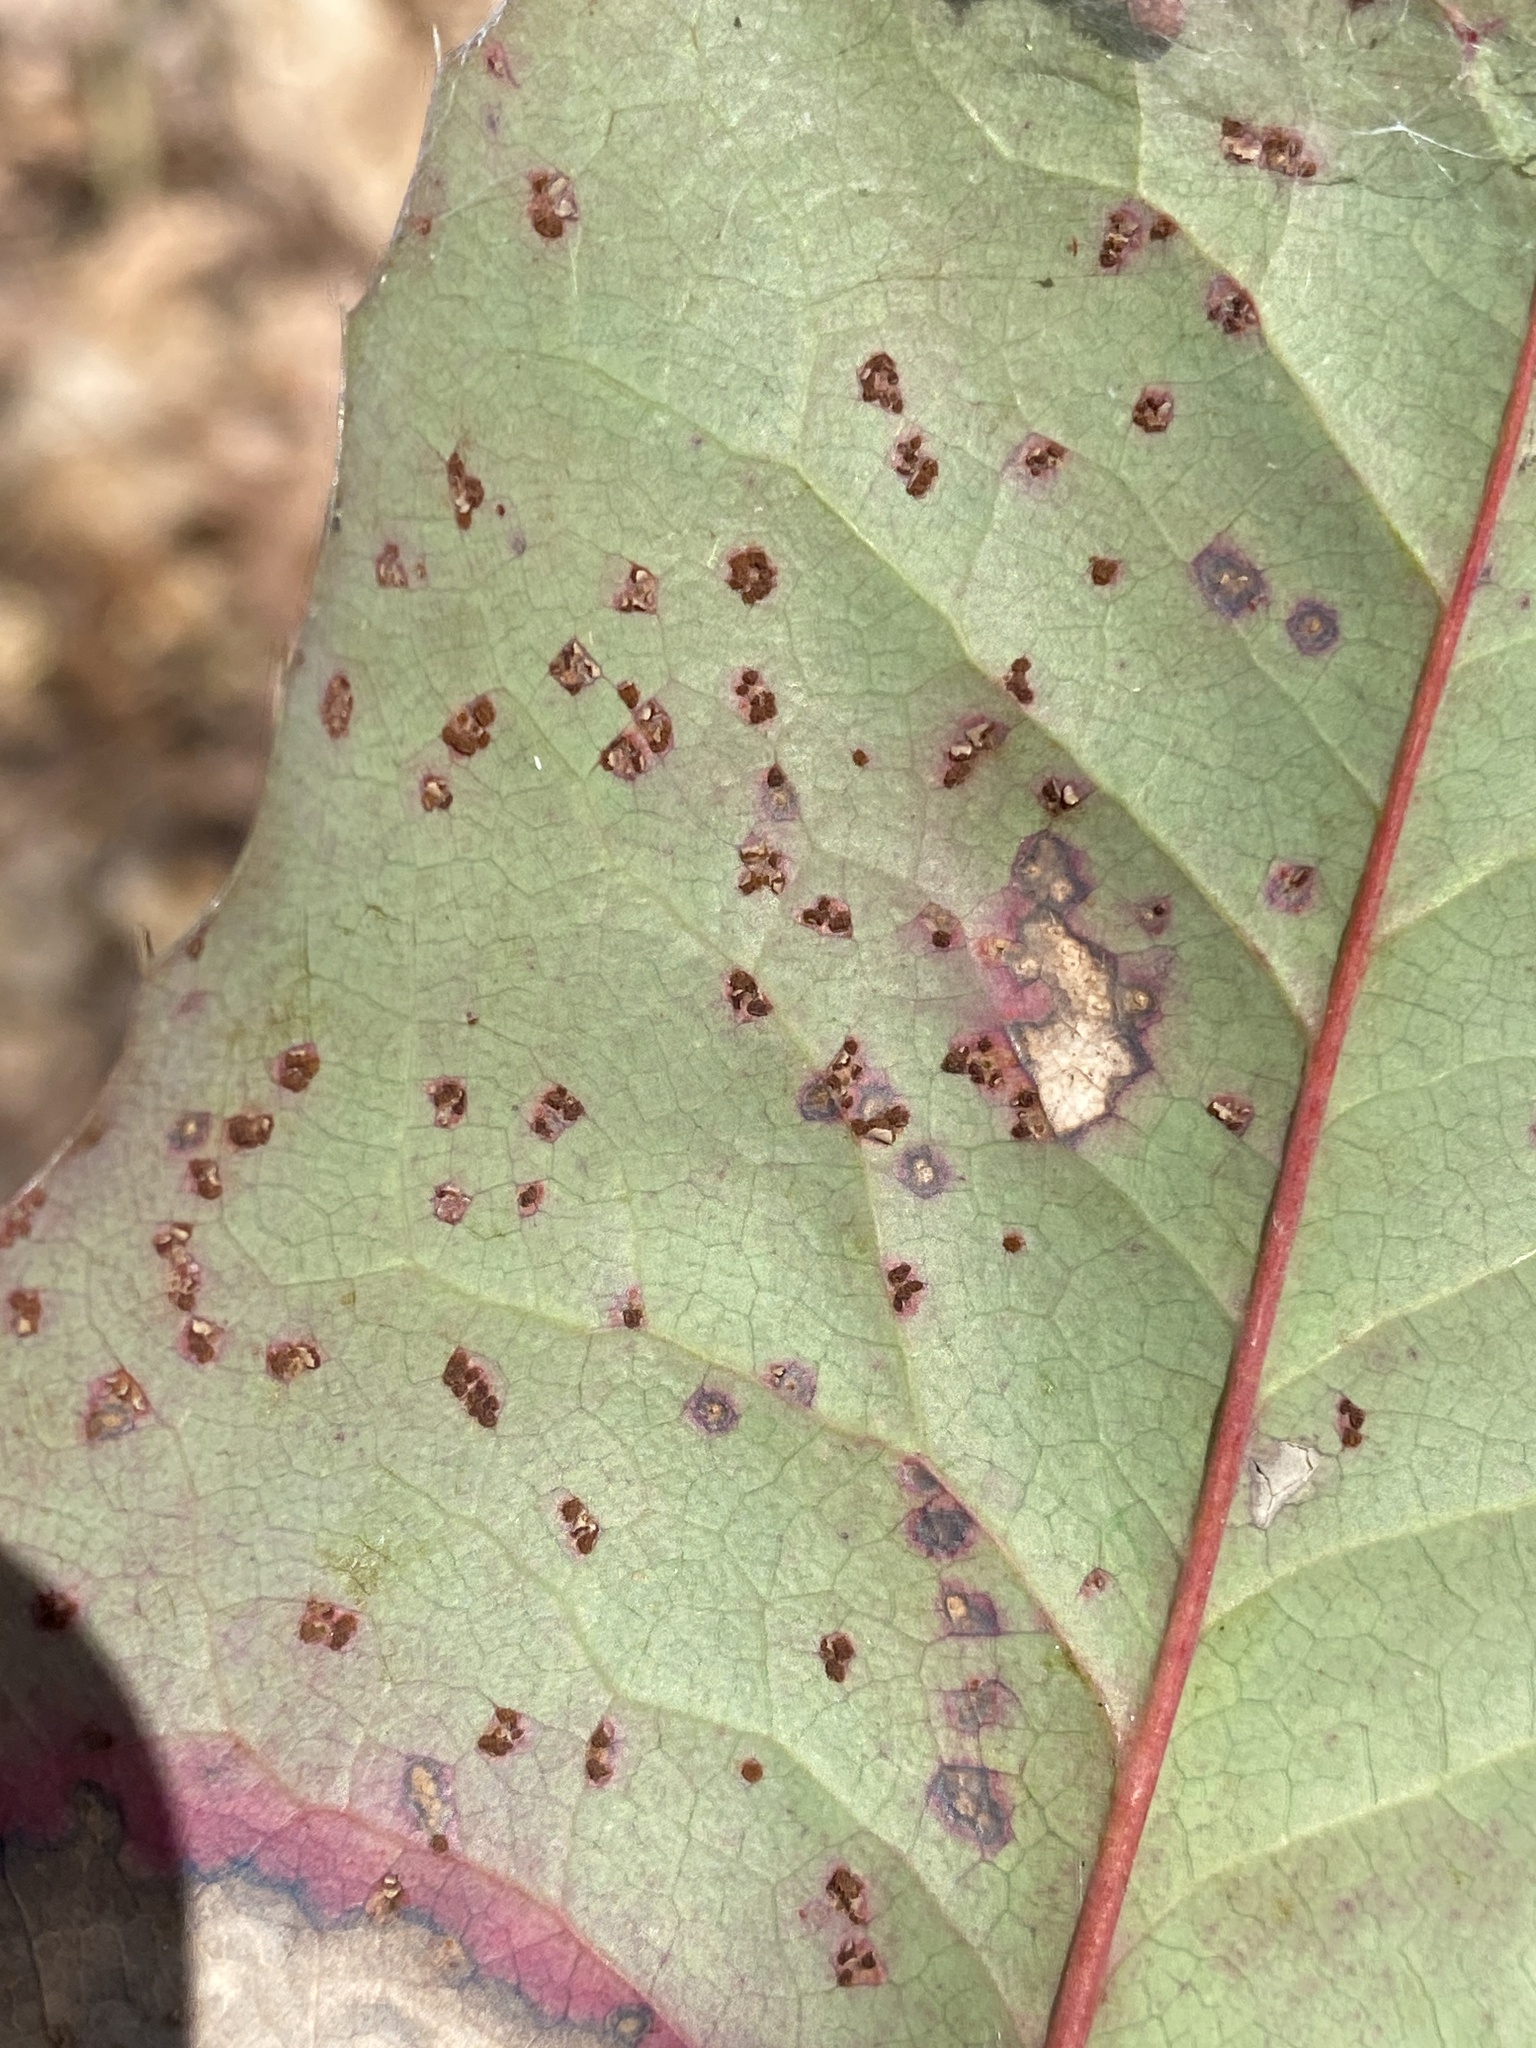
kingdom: Fungi
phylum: Basidiomycota
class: Pucciniomycetes
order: Pucciniales
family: Pucciniaceae
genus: Cumminsiella
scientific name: Cumminsiella mirabilissima
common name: Mahonia rust
